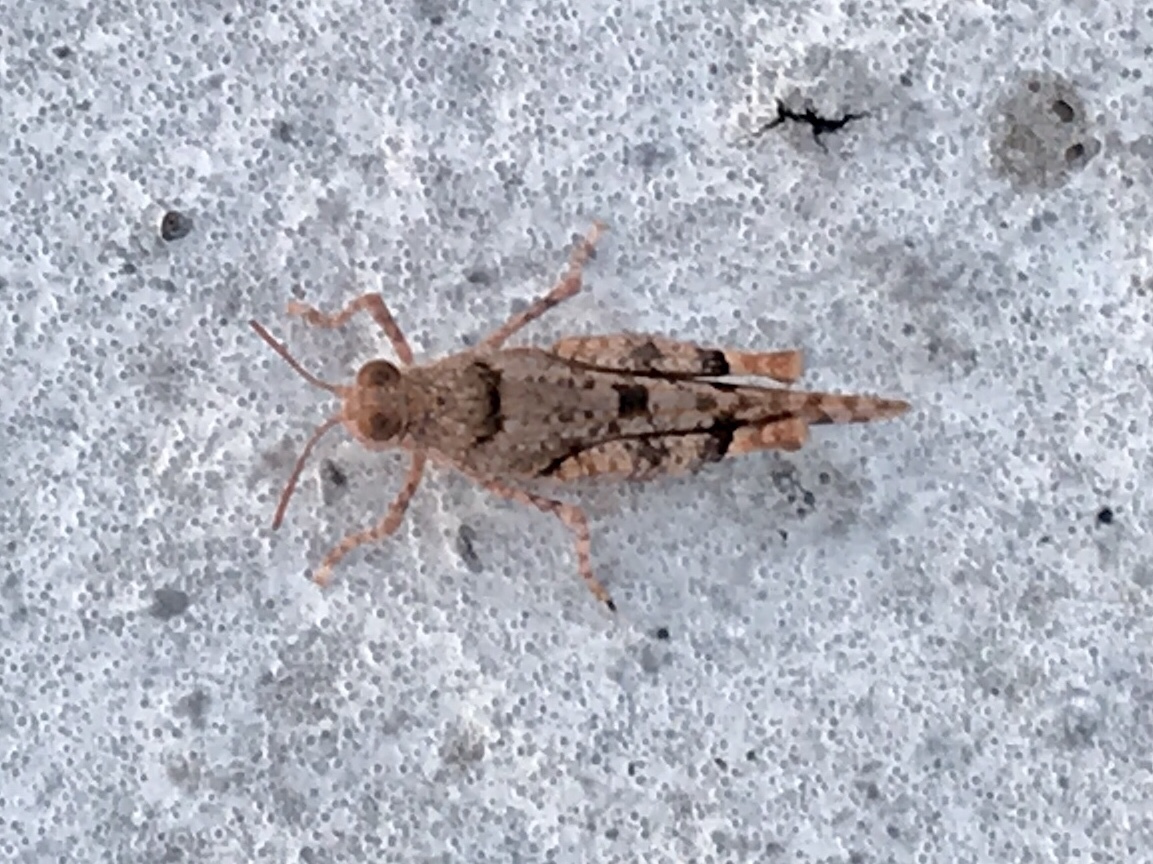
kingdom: Animalia
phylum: Arthropoda
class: Insecta
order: Orthoptera
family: Acrididae
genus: Cibolacris
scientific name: Cibolacris parviceps
